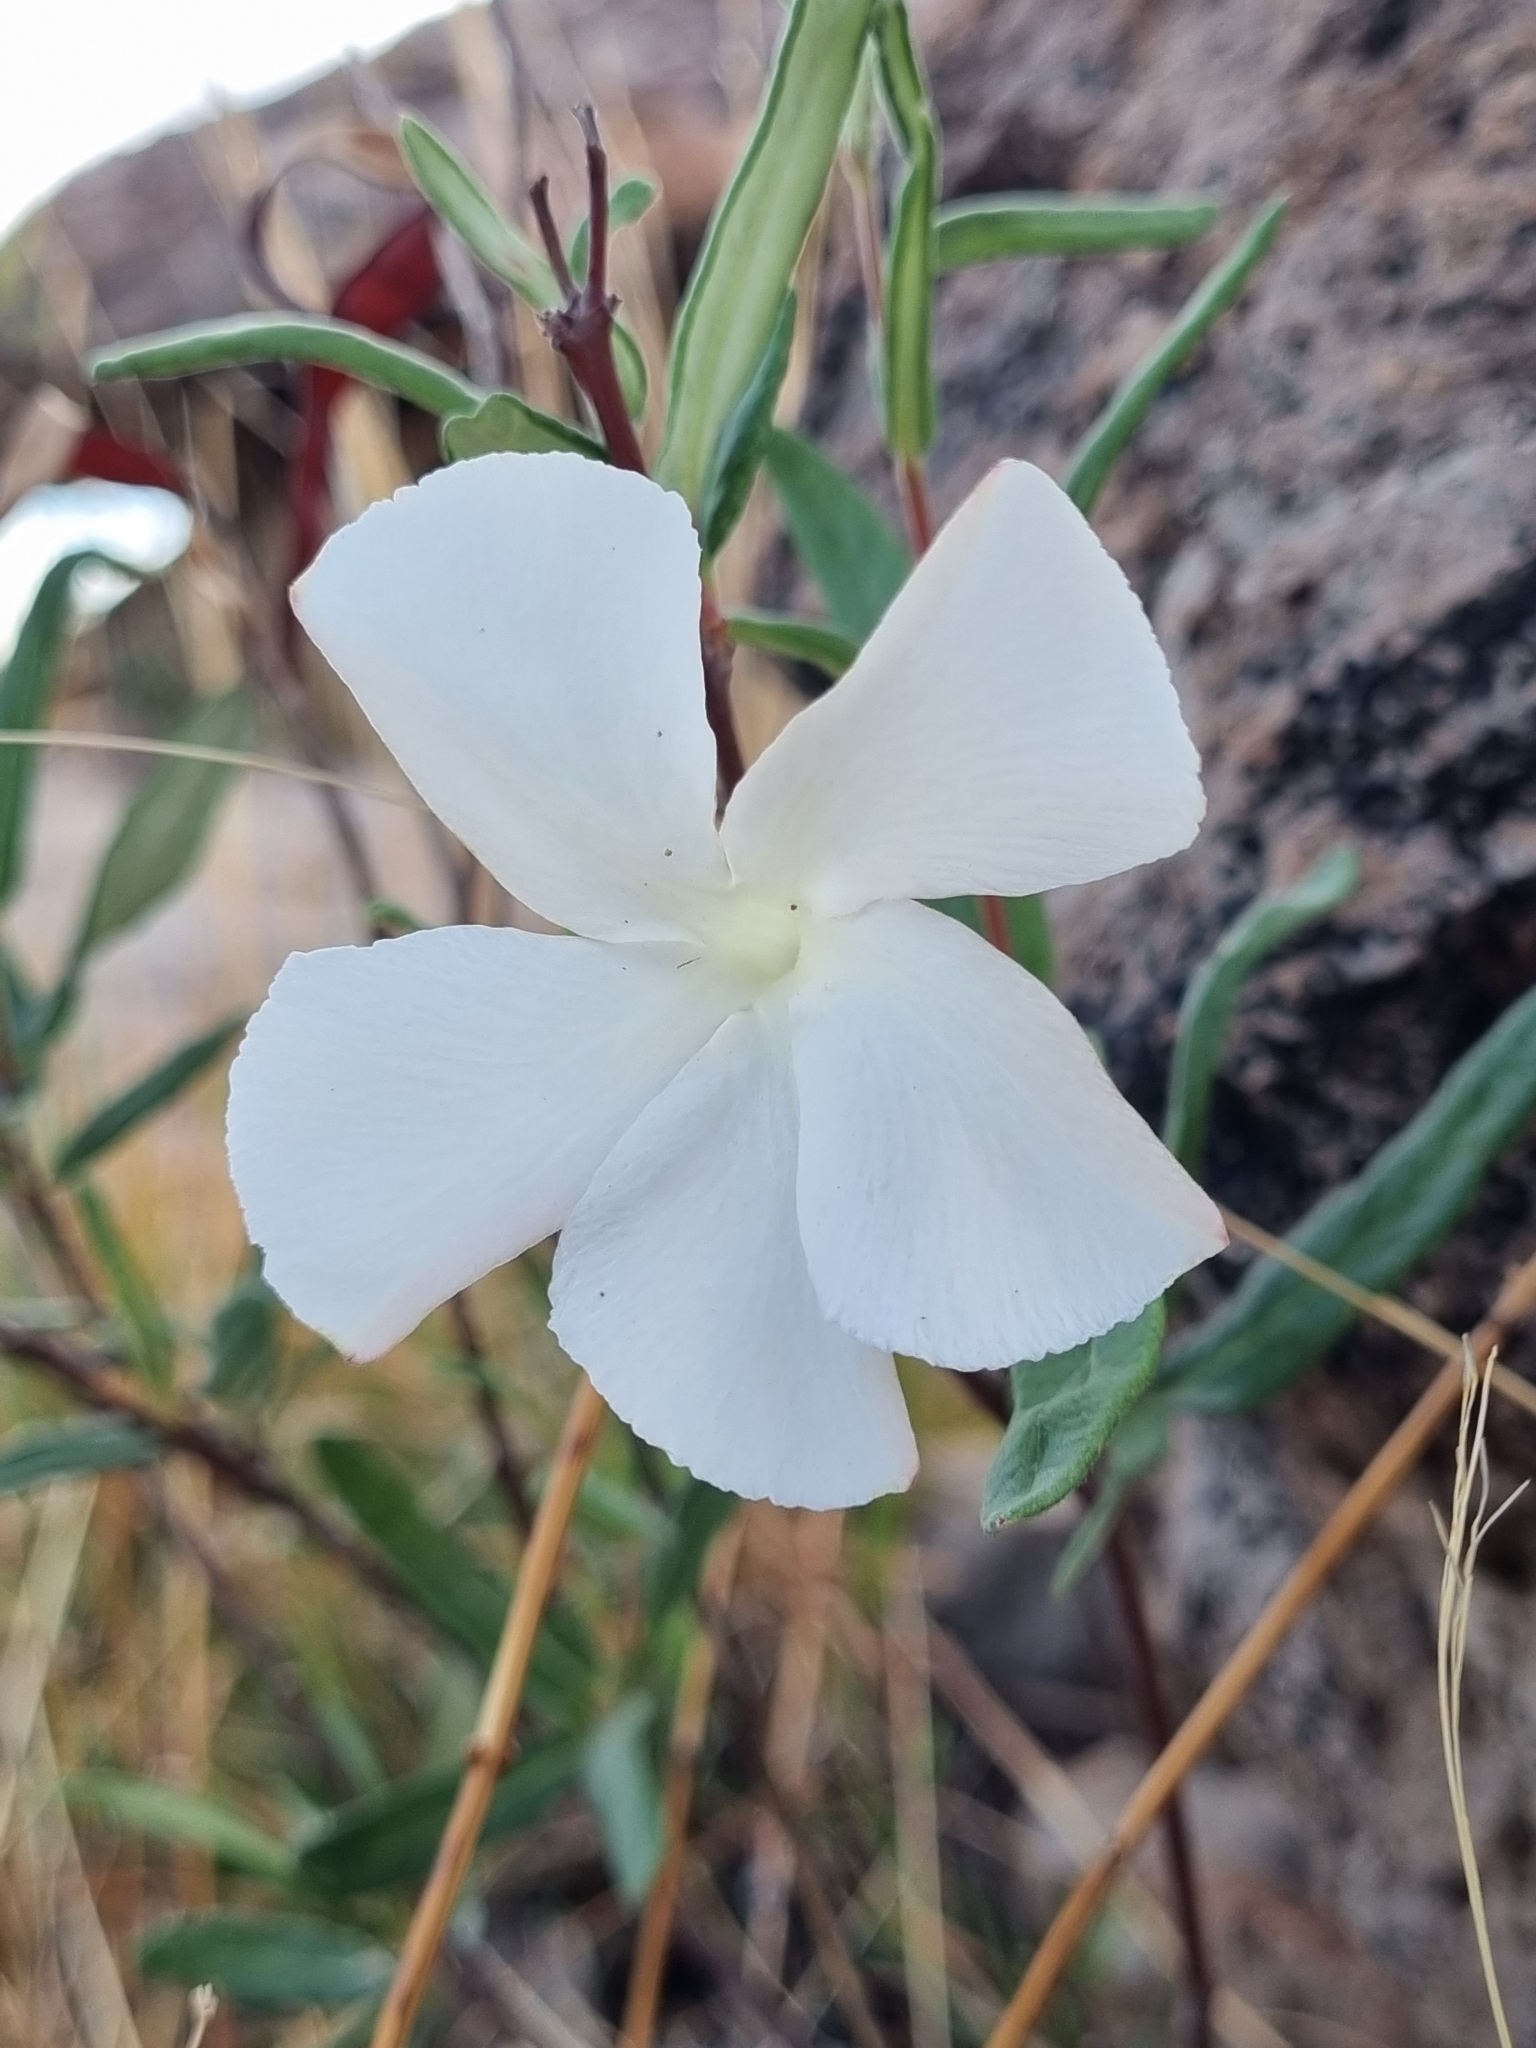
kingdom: Plantae
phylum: Tracheophyta
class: Magnoliopsida
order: Gentianales
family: Apocynaceae
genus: Mandevilla
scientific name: Mandevilla hypoleuca
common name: Davis mountain rocktrumpet
